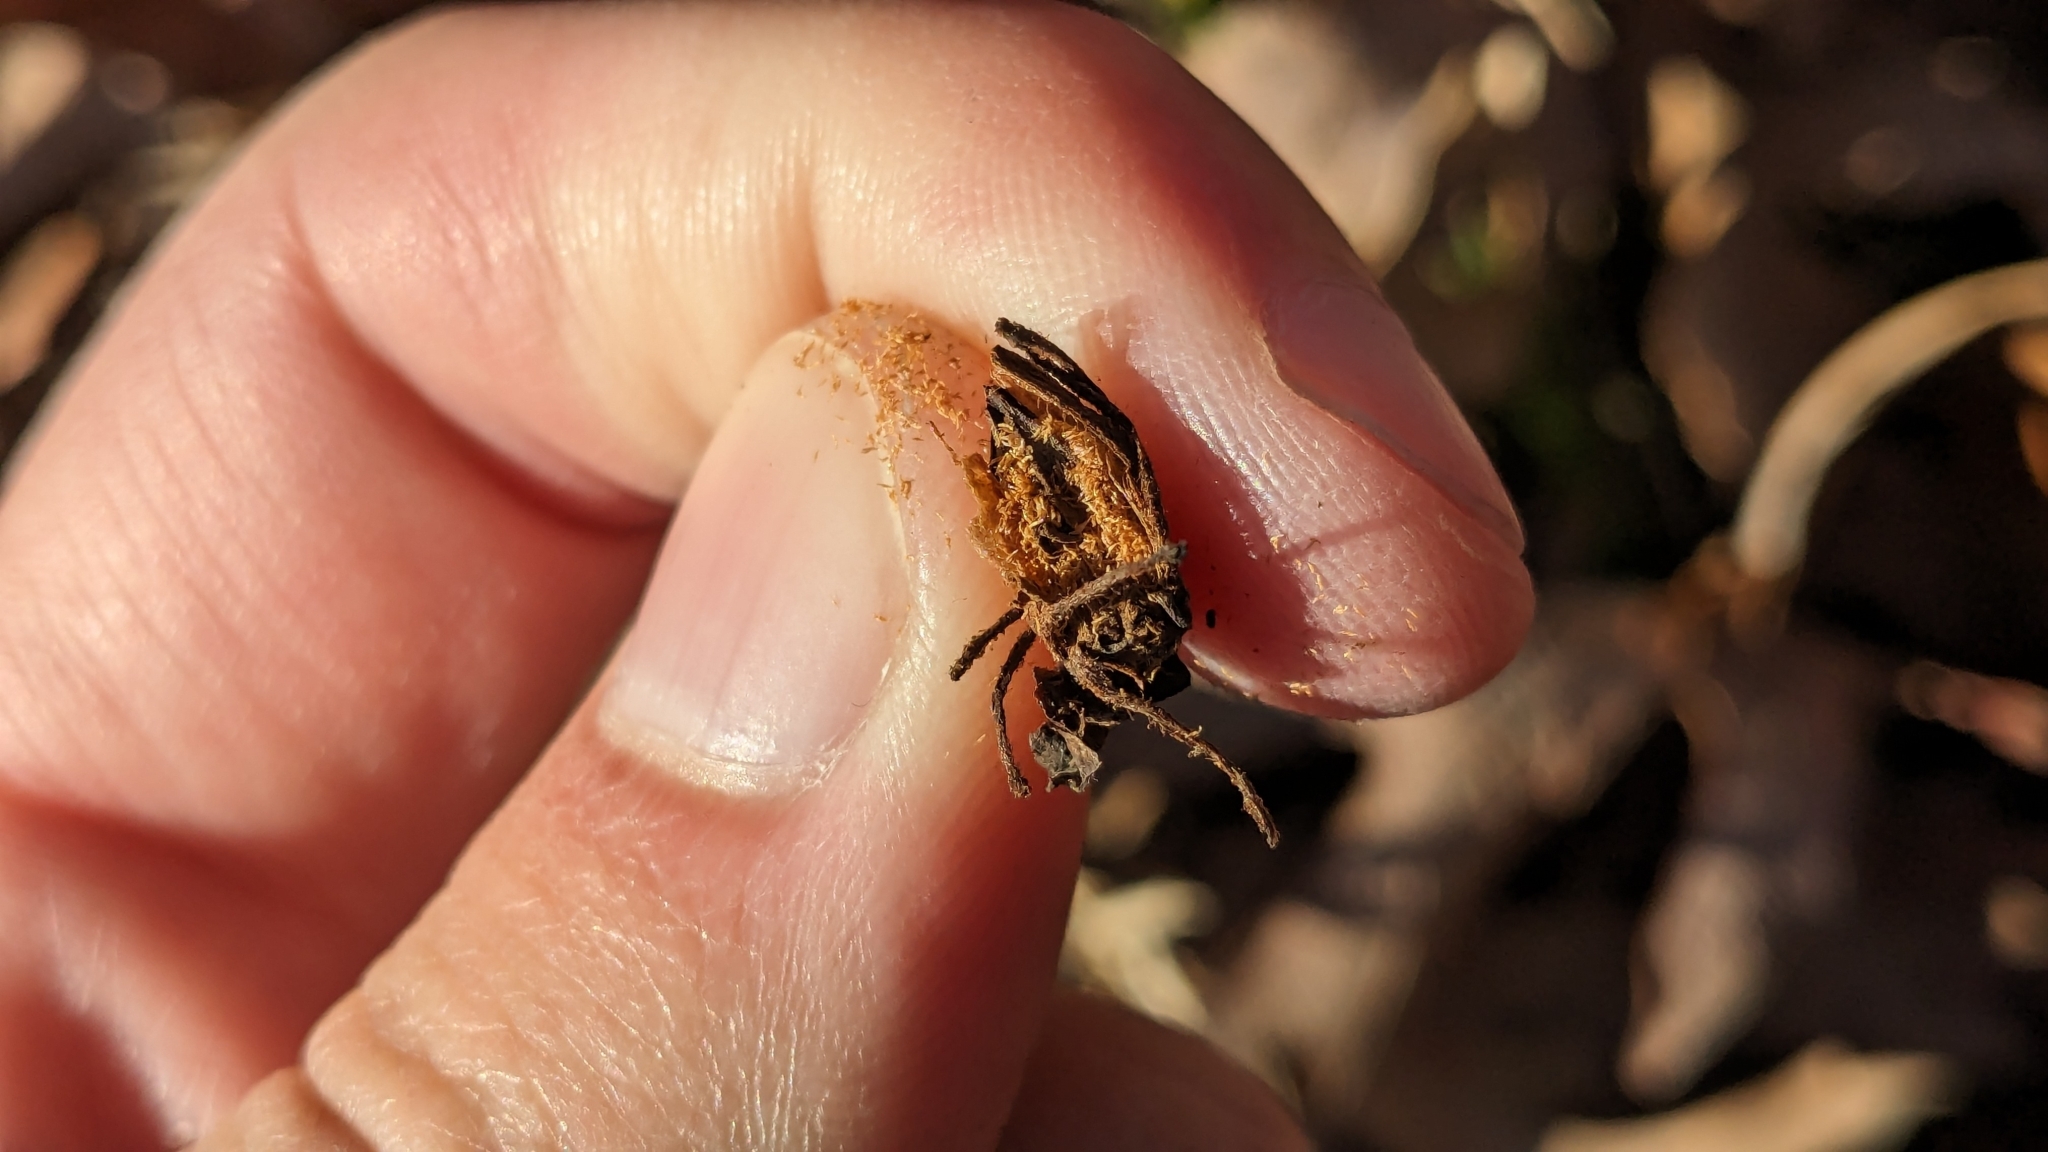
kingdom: Plantae
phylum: Tracheophyta
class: Magnoliopsida
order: Ericales
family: Ericaceae
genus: Monotropa
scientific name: Monotropa uniflora
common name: Convulsion root
